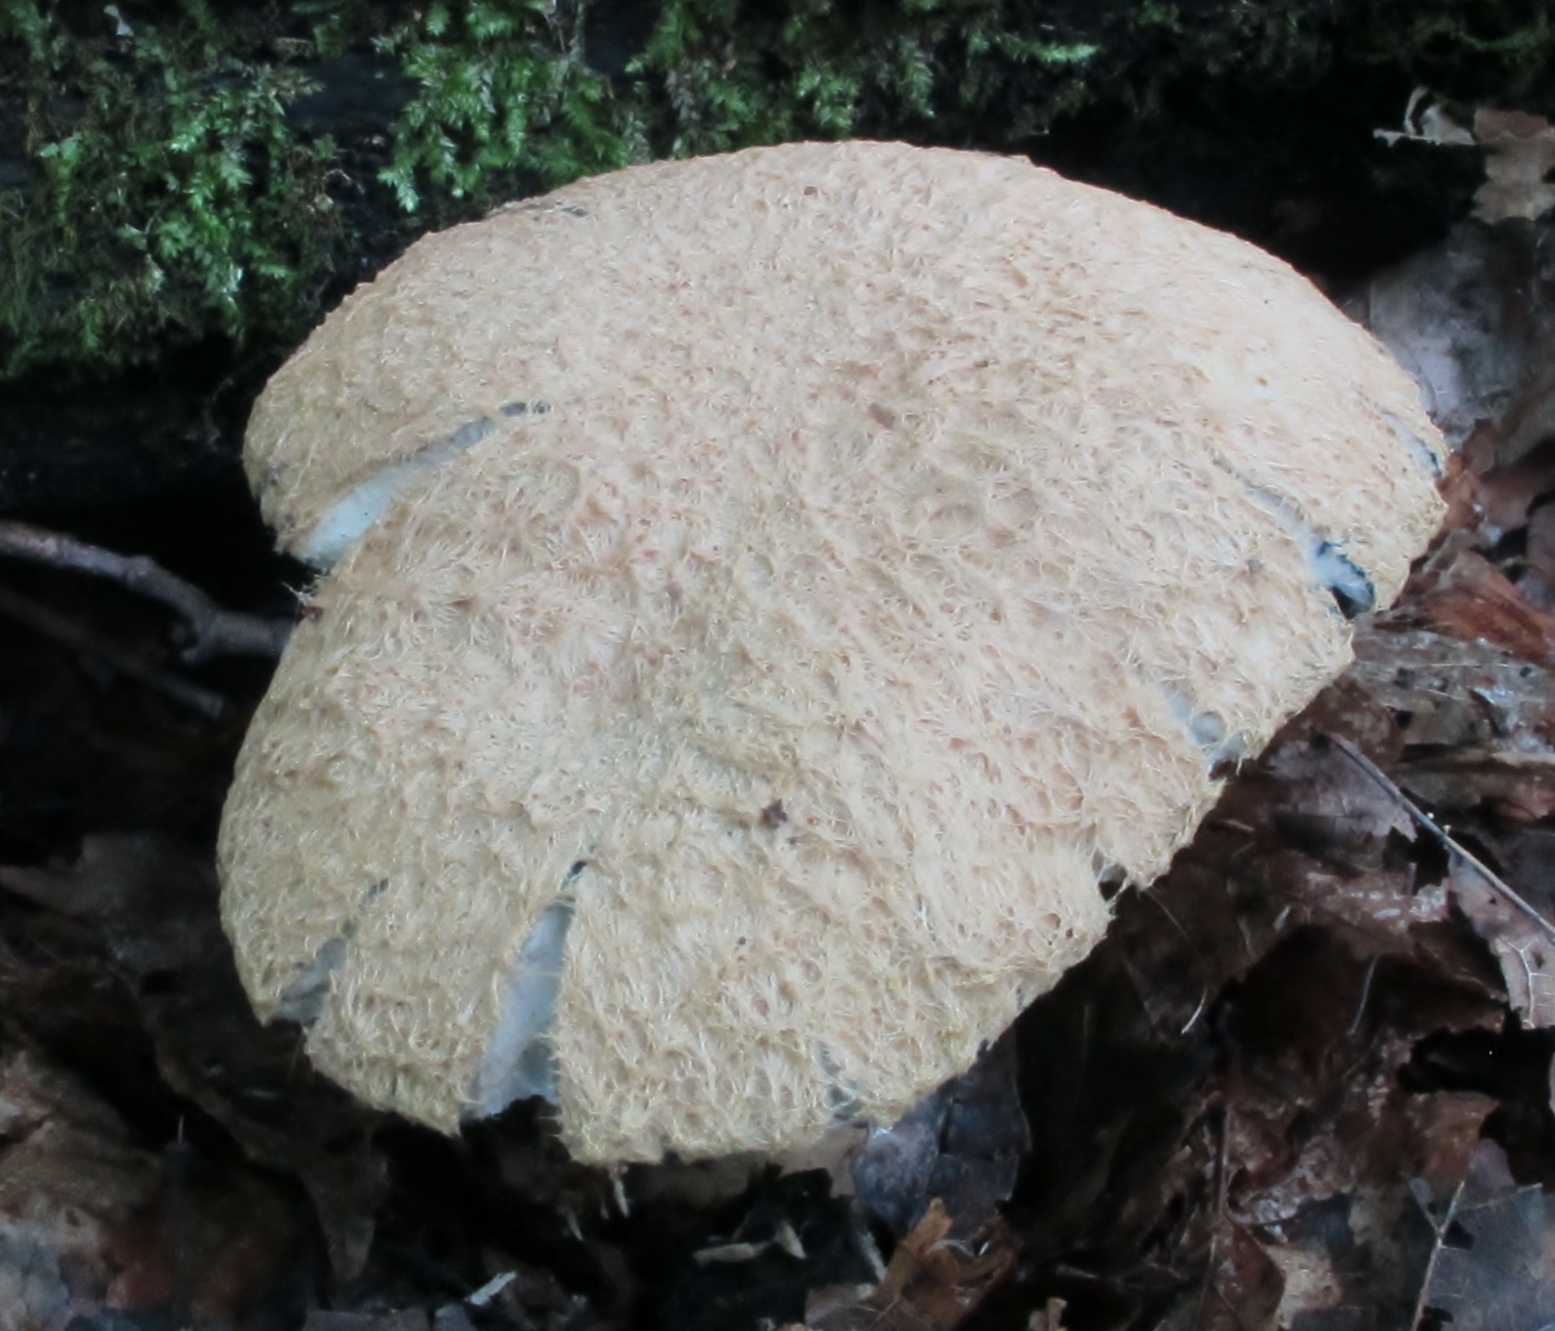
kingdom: Fungi
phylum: Basidiomycota
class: Agaricomycetes
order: Boletales
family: Gyroporaceae
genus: Gyroporus
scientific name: Gyroporus cyanescens
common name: Cornflower bolete
